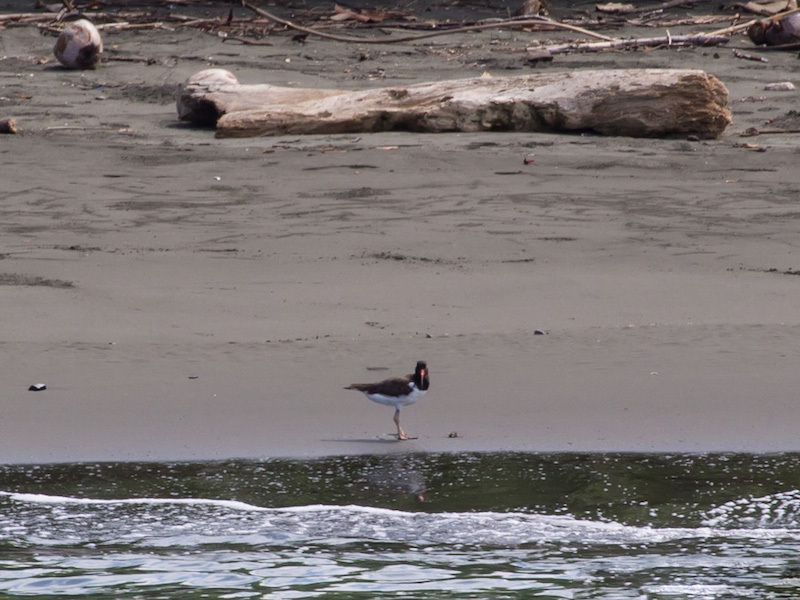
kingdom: Animalia
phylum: Chordata
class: Aves
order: Charadriiformes
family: Haematopodidae
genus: Haematopus
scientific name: Haematopus palliatus
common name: American oystercatcher
